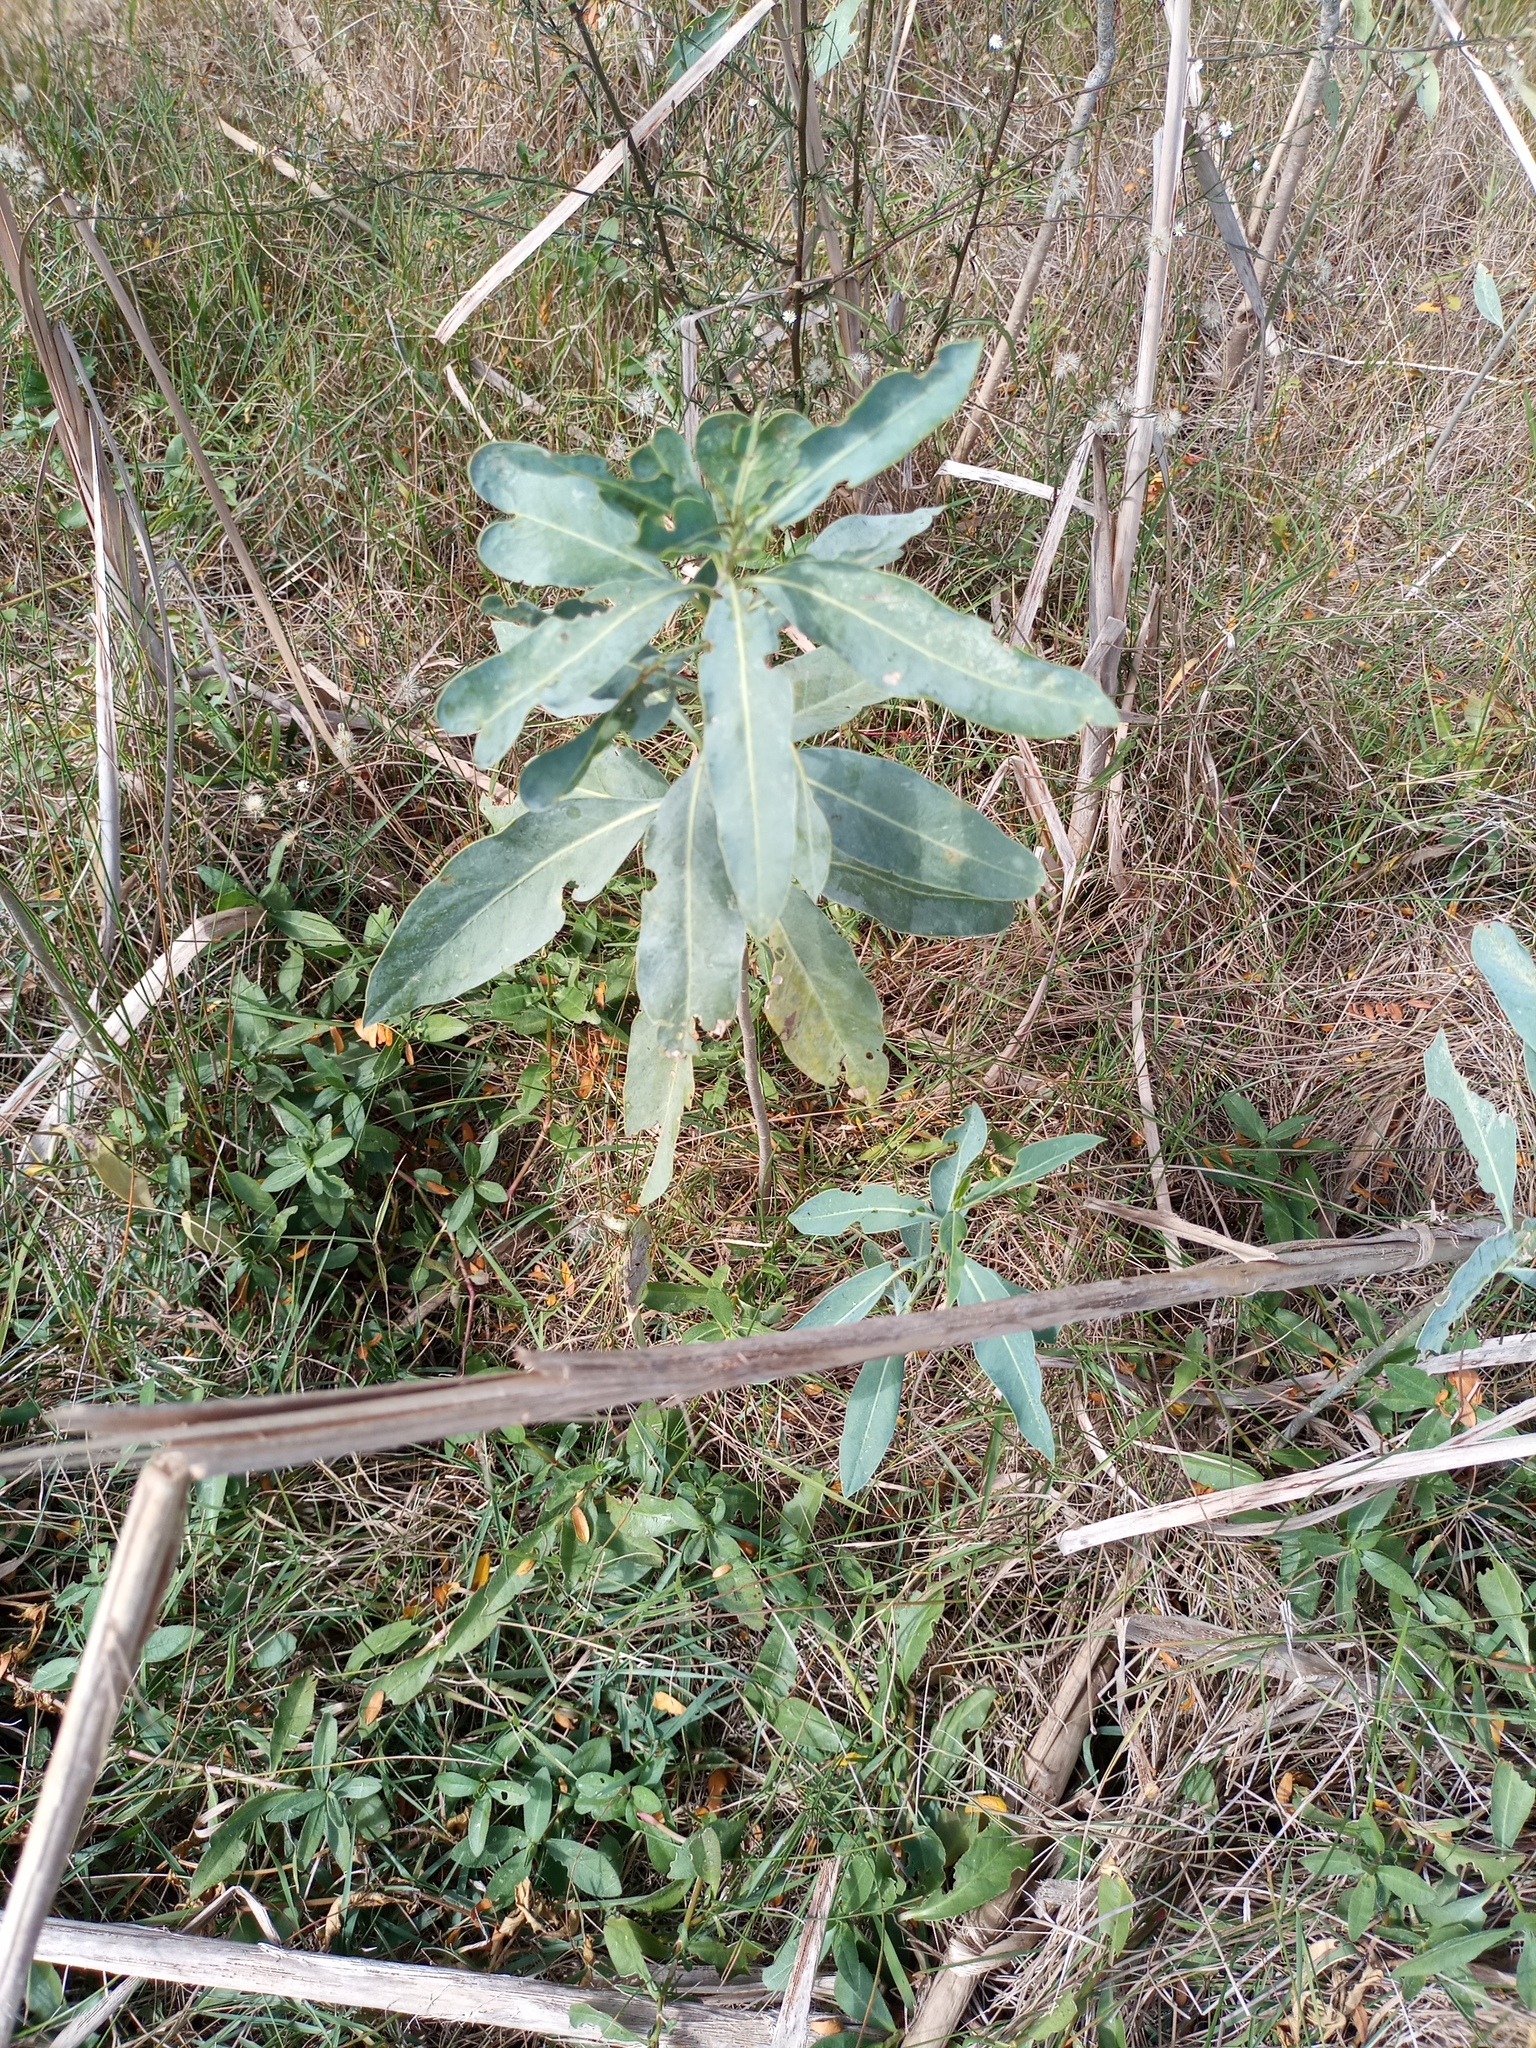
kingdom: Plantae
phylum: Tracheophyta
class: Magnoliopsida
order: Solanales
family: Solanaceae
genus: Solanum
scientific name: Solanum glaucophyllum
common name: Waxyleaf nightshade
